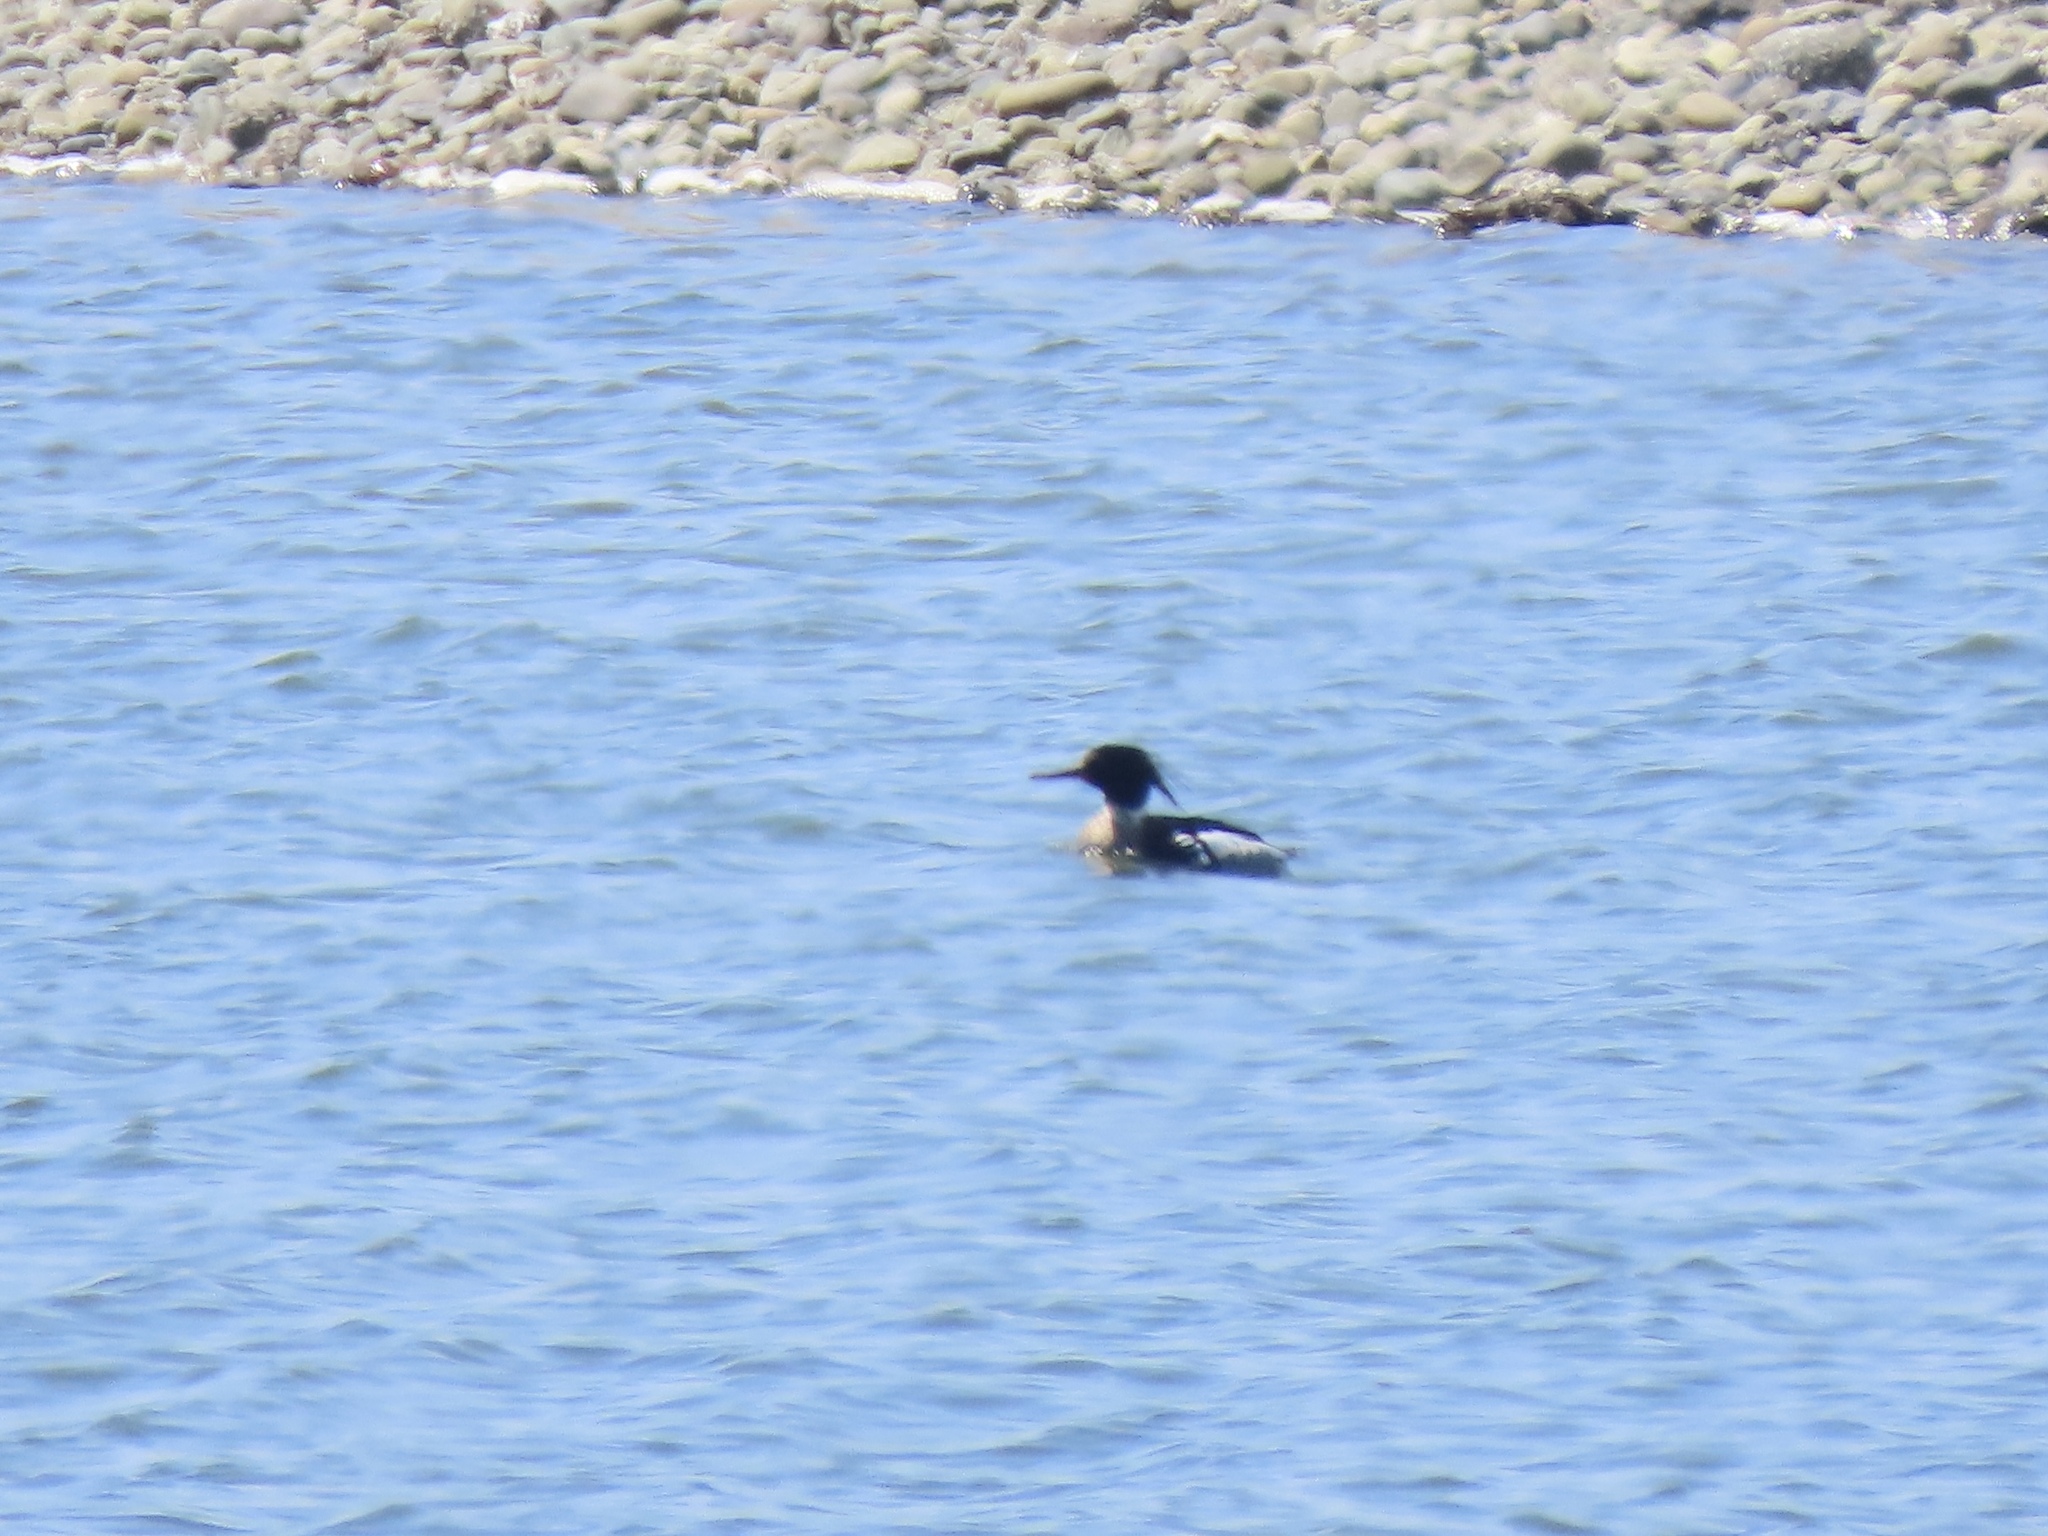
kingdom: Animalia
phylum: Chordata
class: Aves
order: Anseriformes
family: Anatidae
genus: Mergus
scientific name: Mergus serrator
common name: Red-breasted merganser
